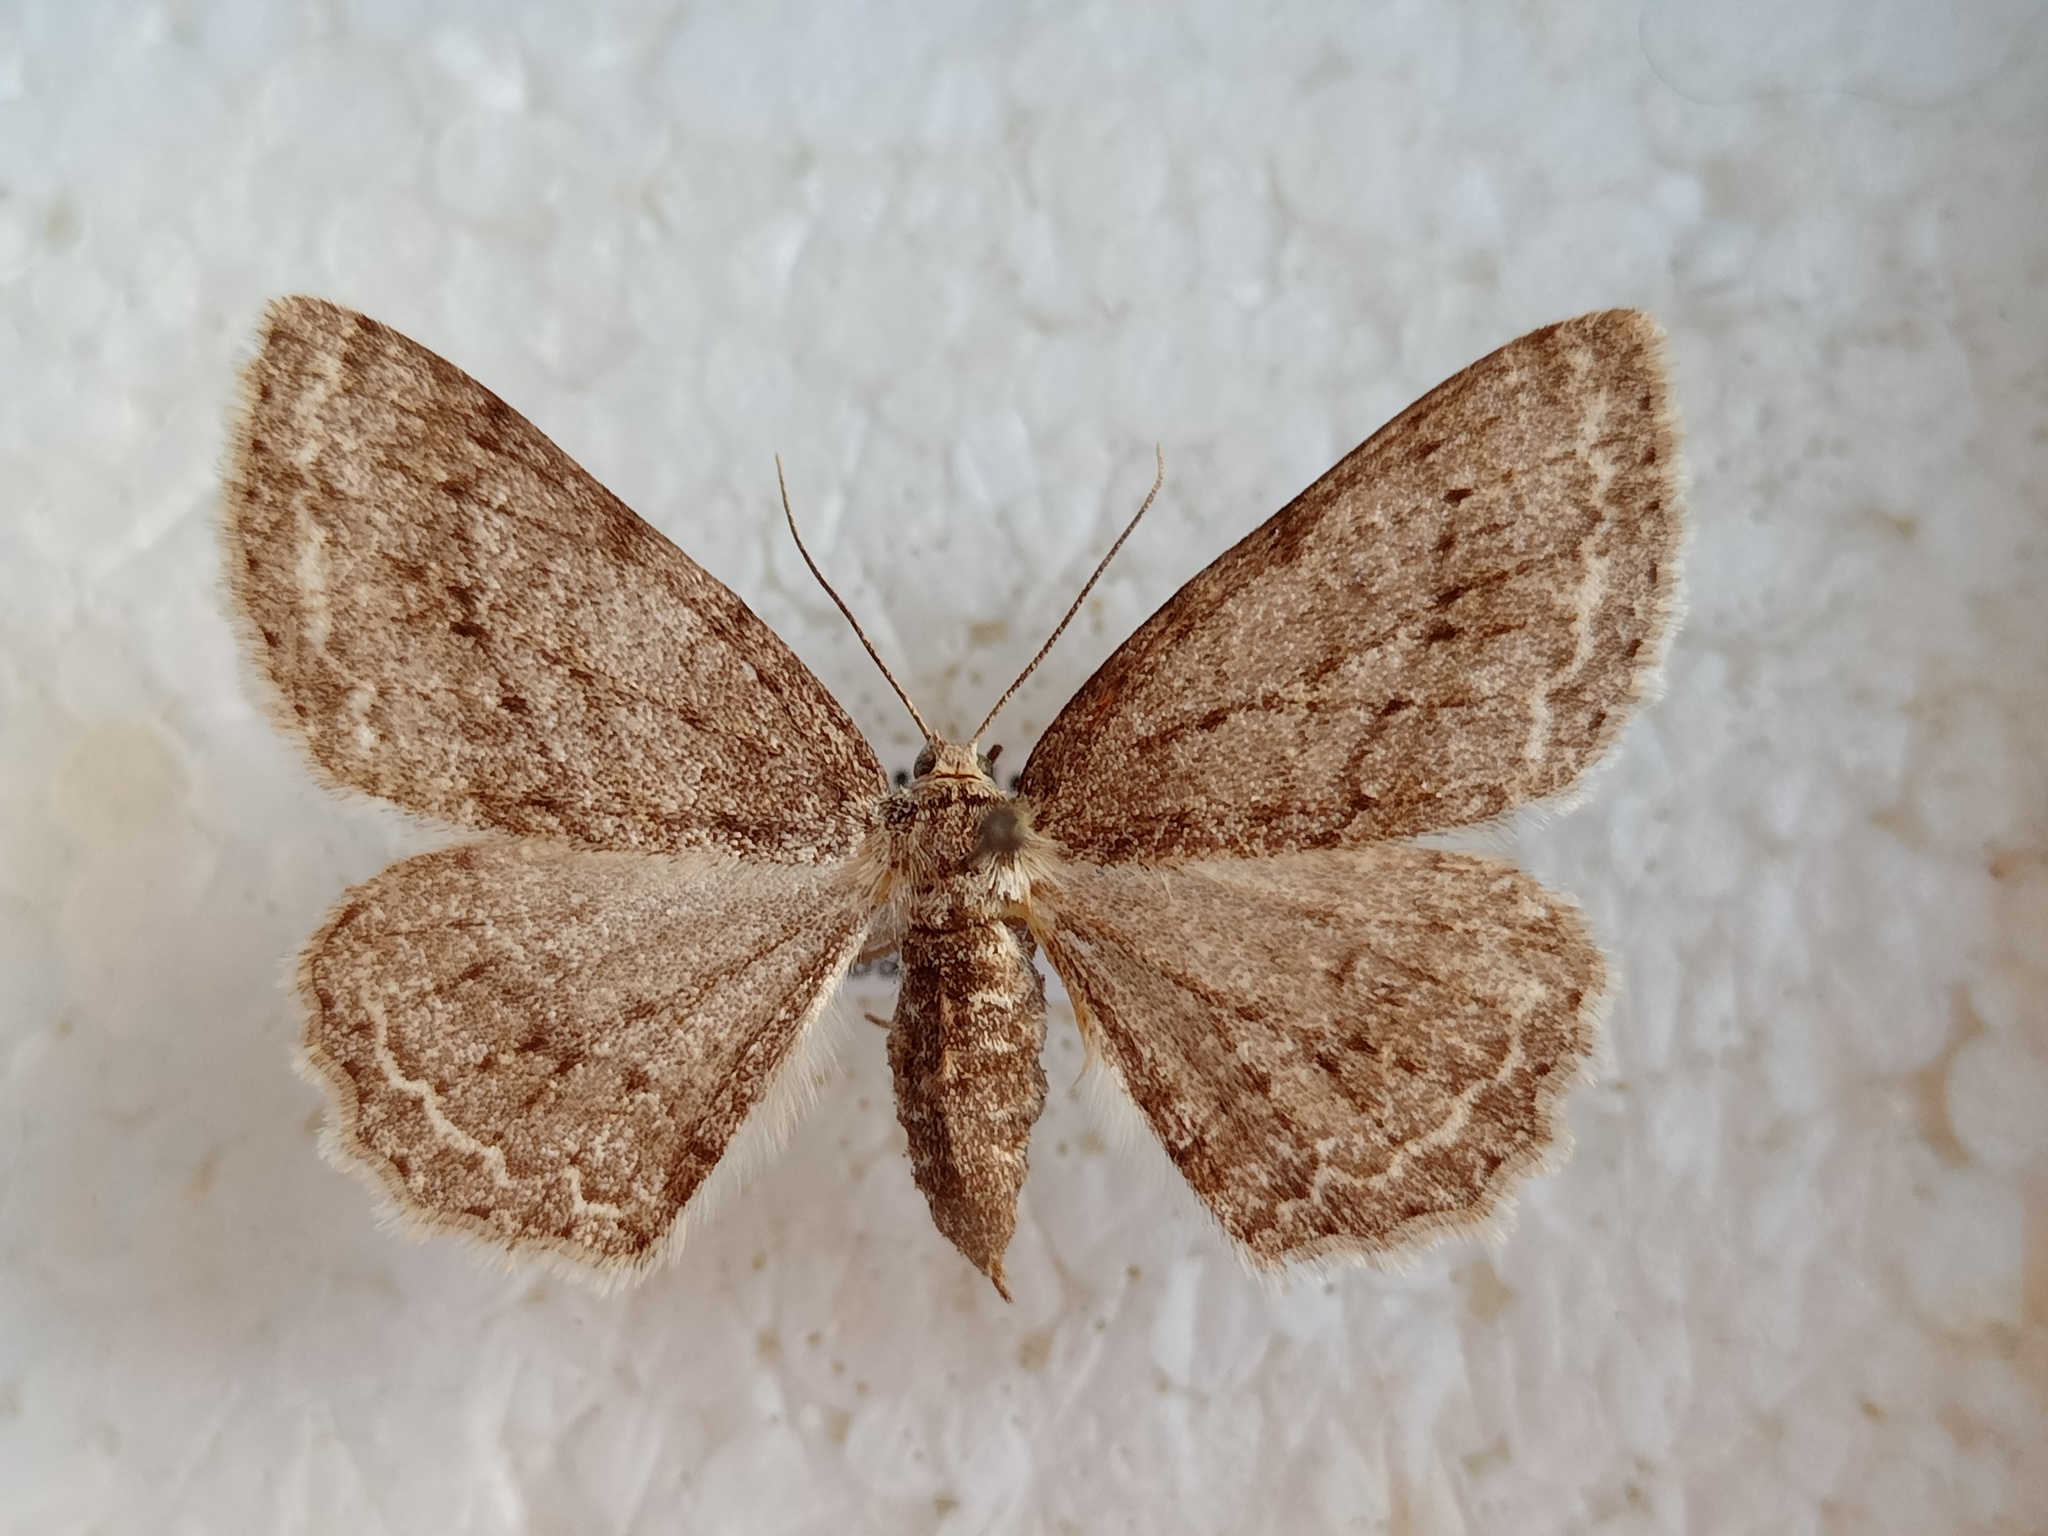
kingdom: Animalia
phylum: Arthropoda
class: Insecta
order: Lepidoptera
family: Geometridae
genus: Ectropis
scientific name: Ectropis crepuscularia
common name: Engrailed
